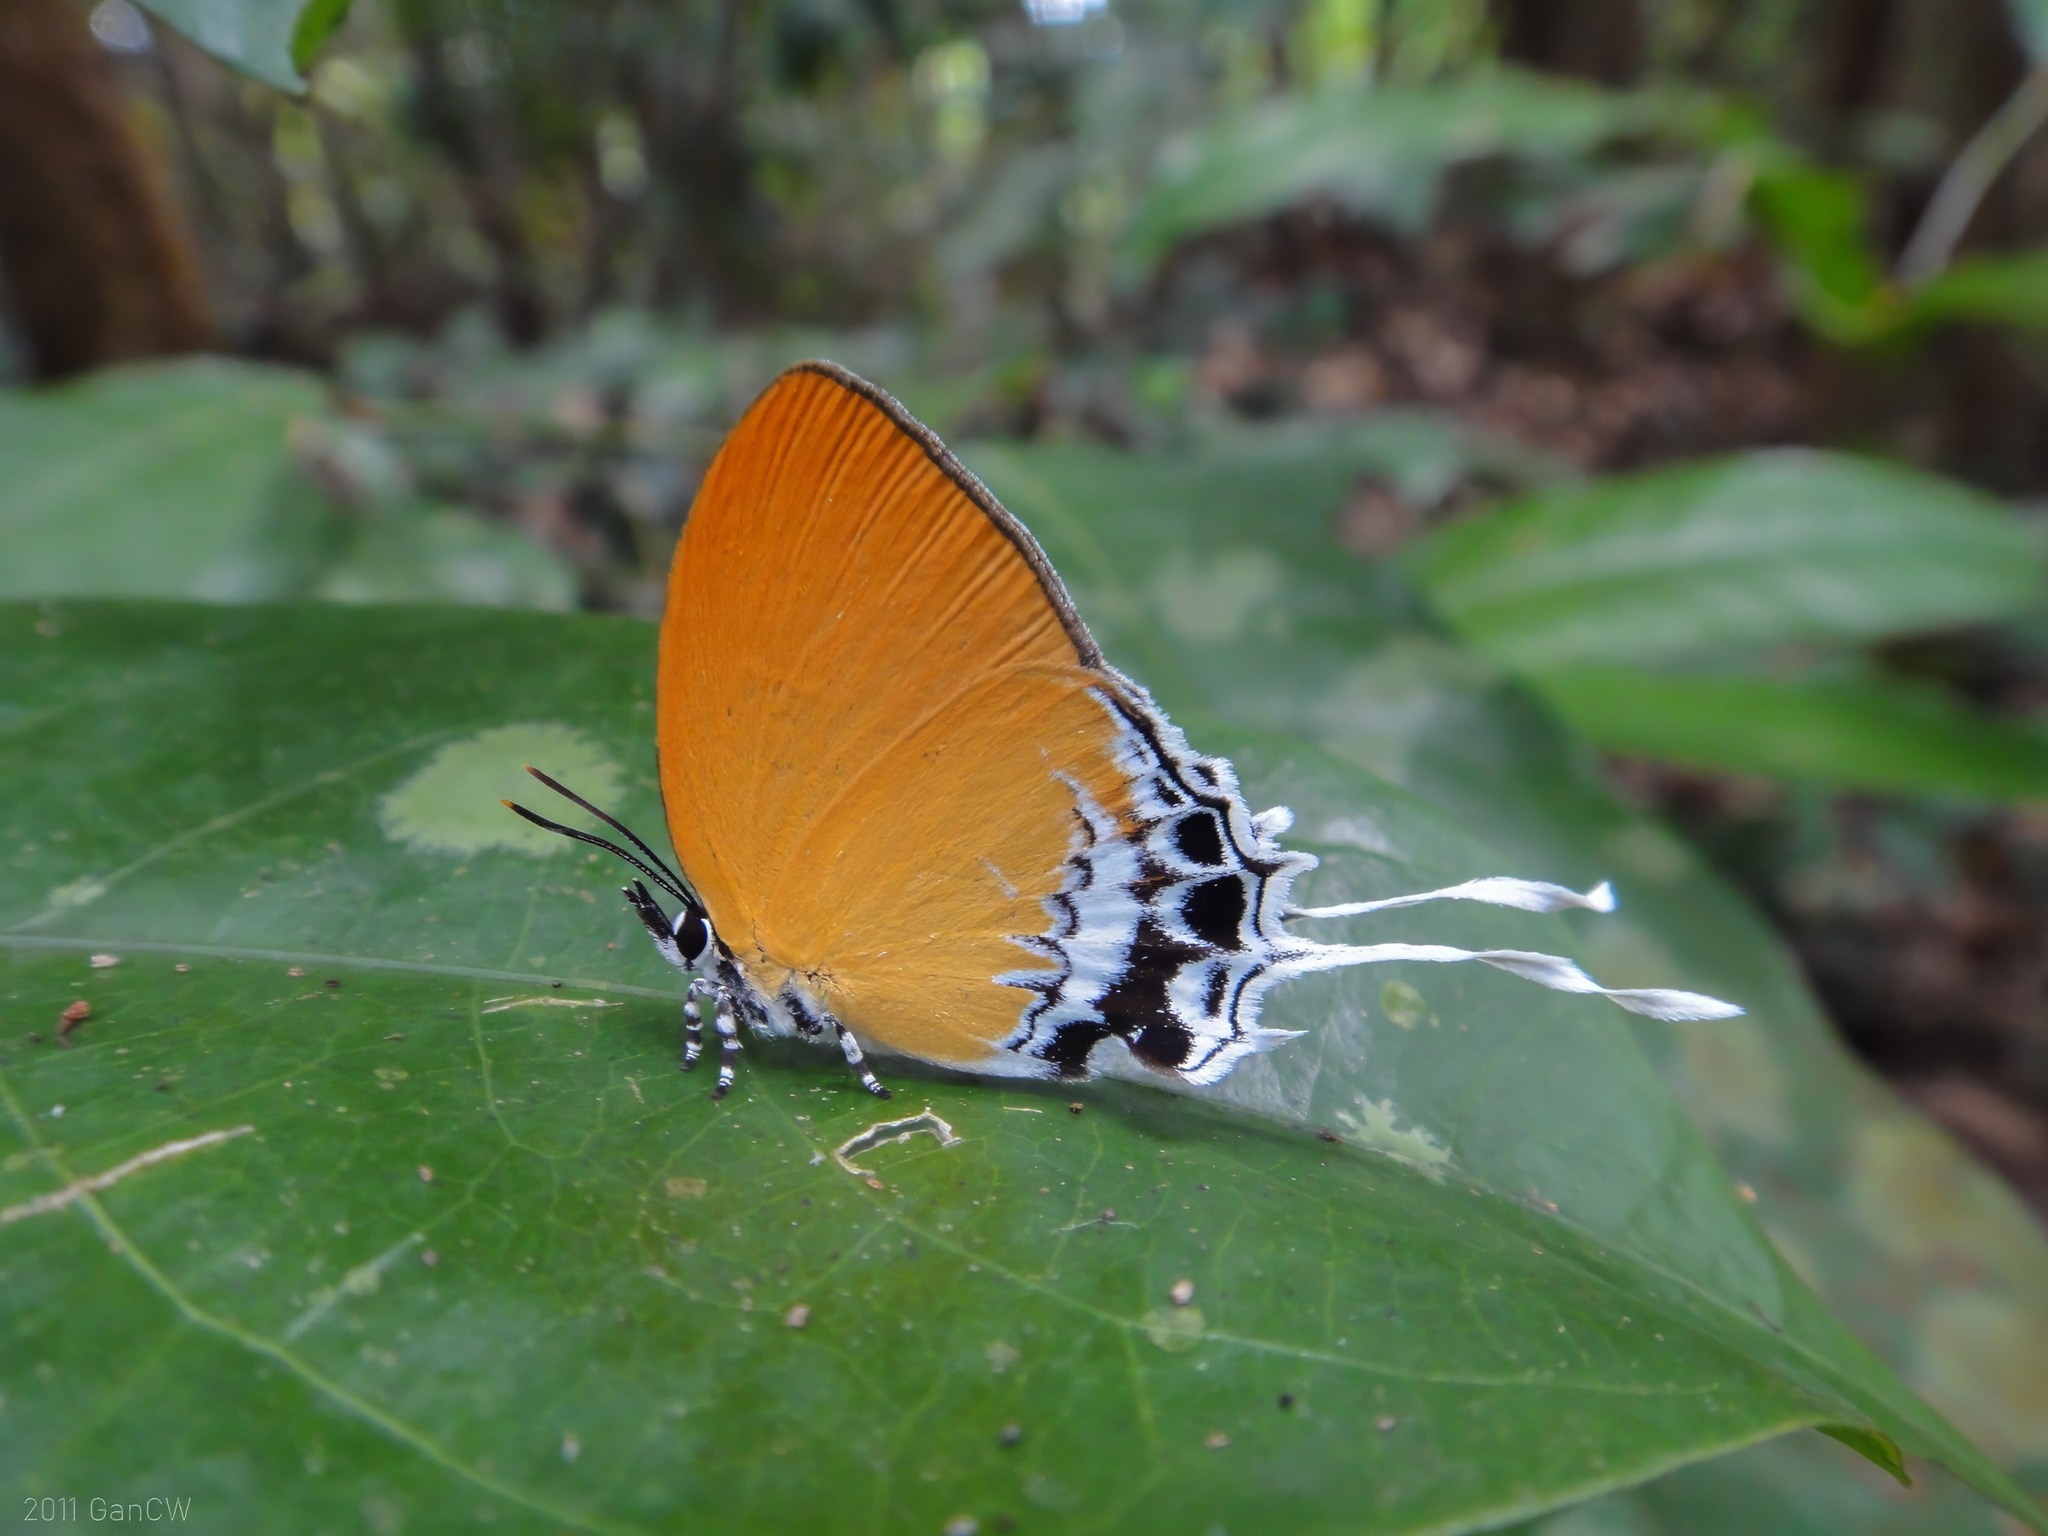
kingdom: Animalia
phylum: Arthropoda
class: Insecta
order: Lepidoptera
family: Lycaenidae
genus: Eooxylides
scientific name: Eooxylides tharis
